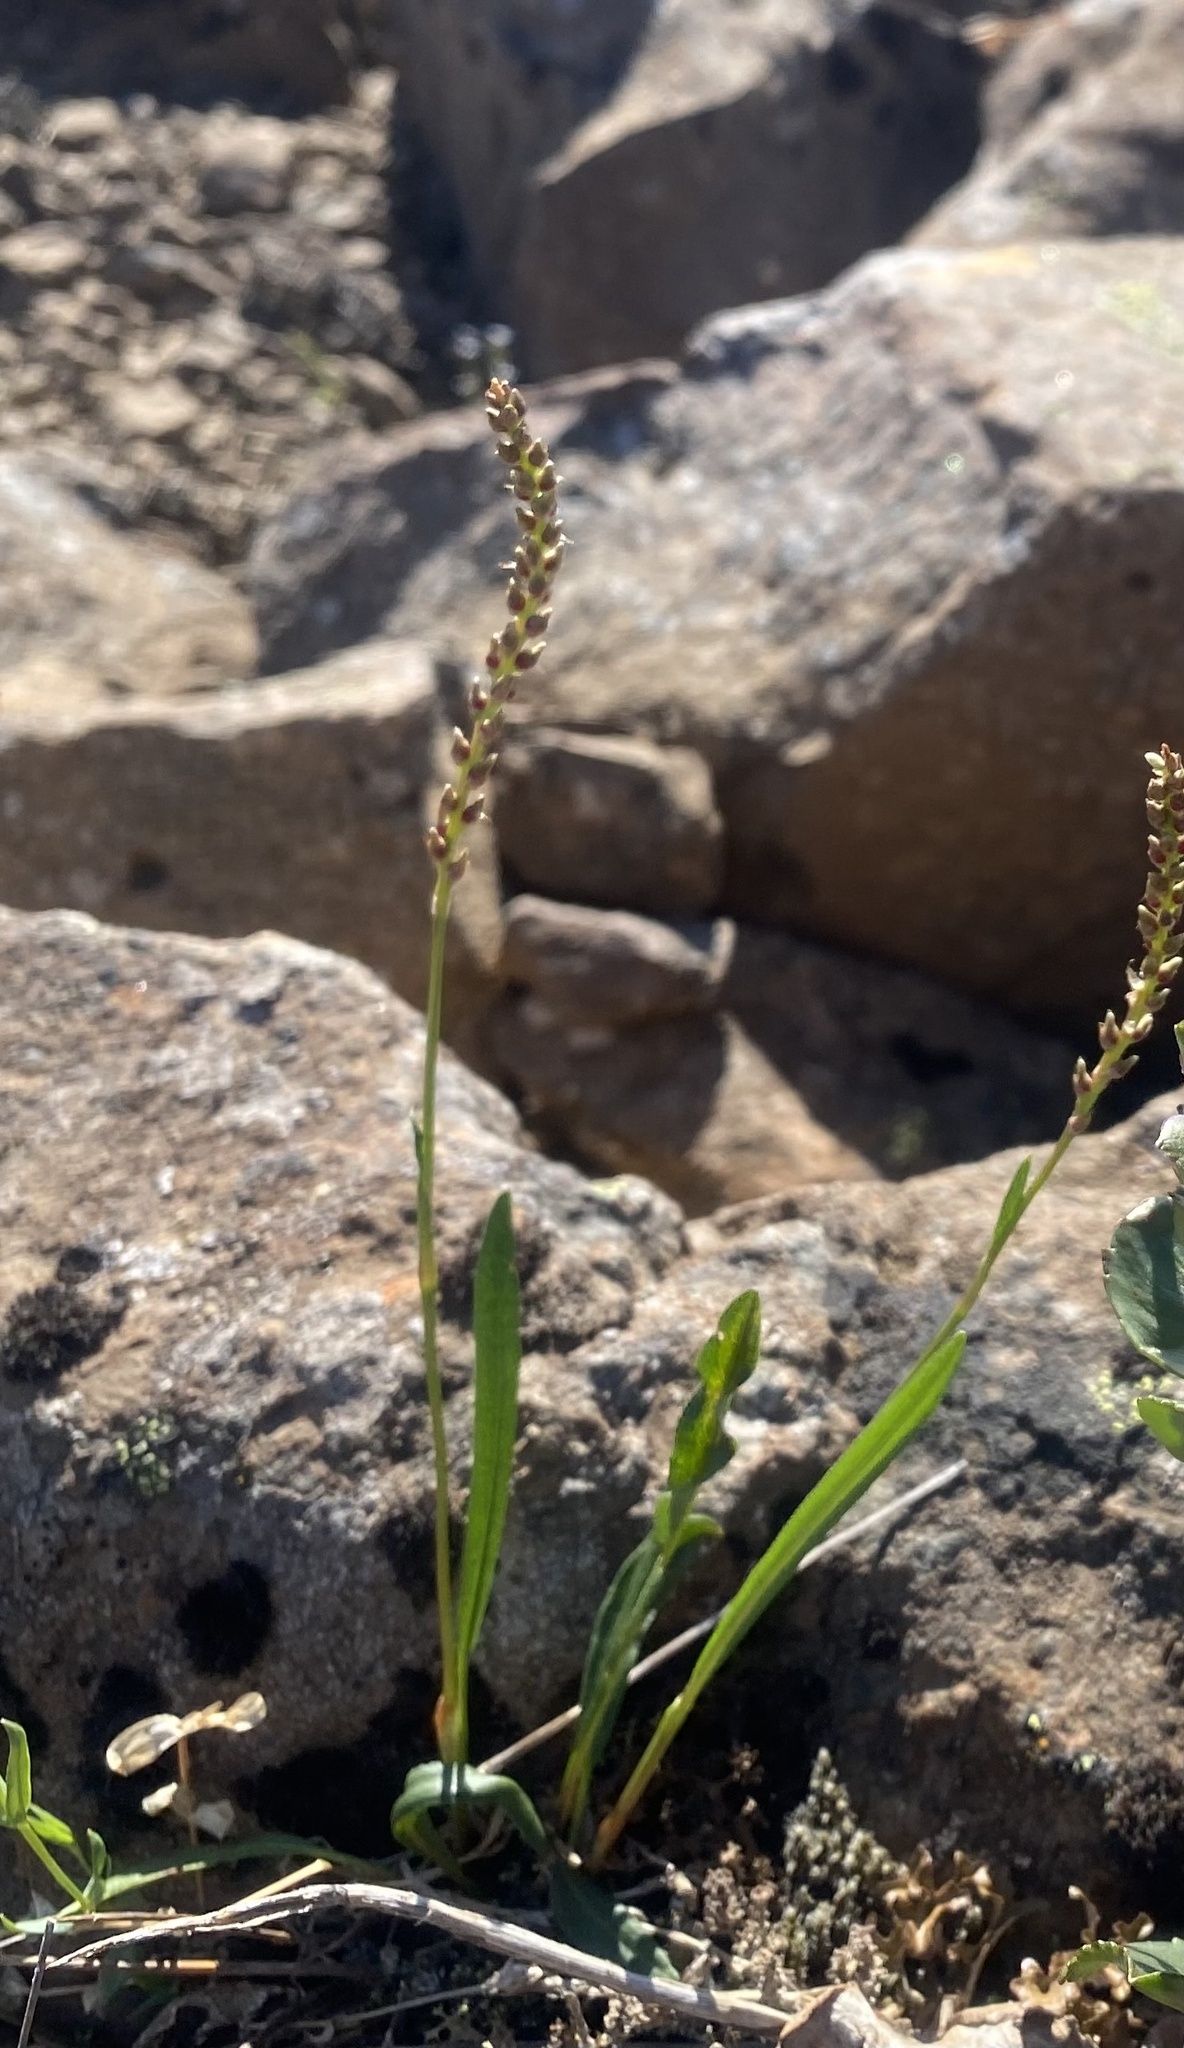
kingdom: Plantae
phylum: Tracheophyta
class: Magnoliopsida
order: Caryophyllales
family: Polygonaceae
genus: Bistorta
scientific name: Bistorta vivipara
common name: Alpine bistort
